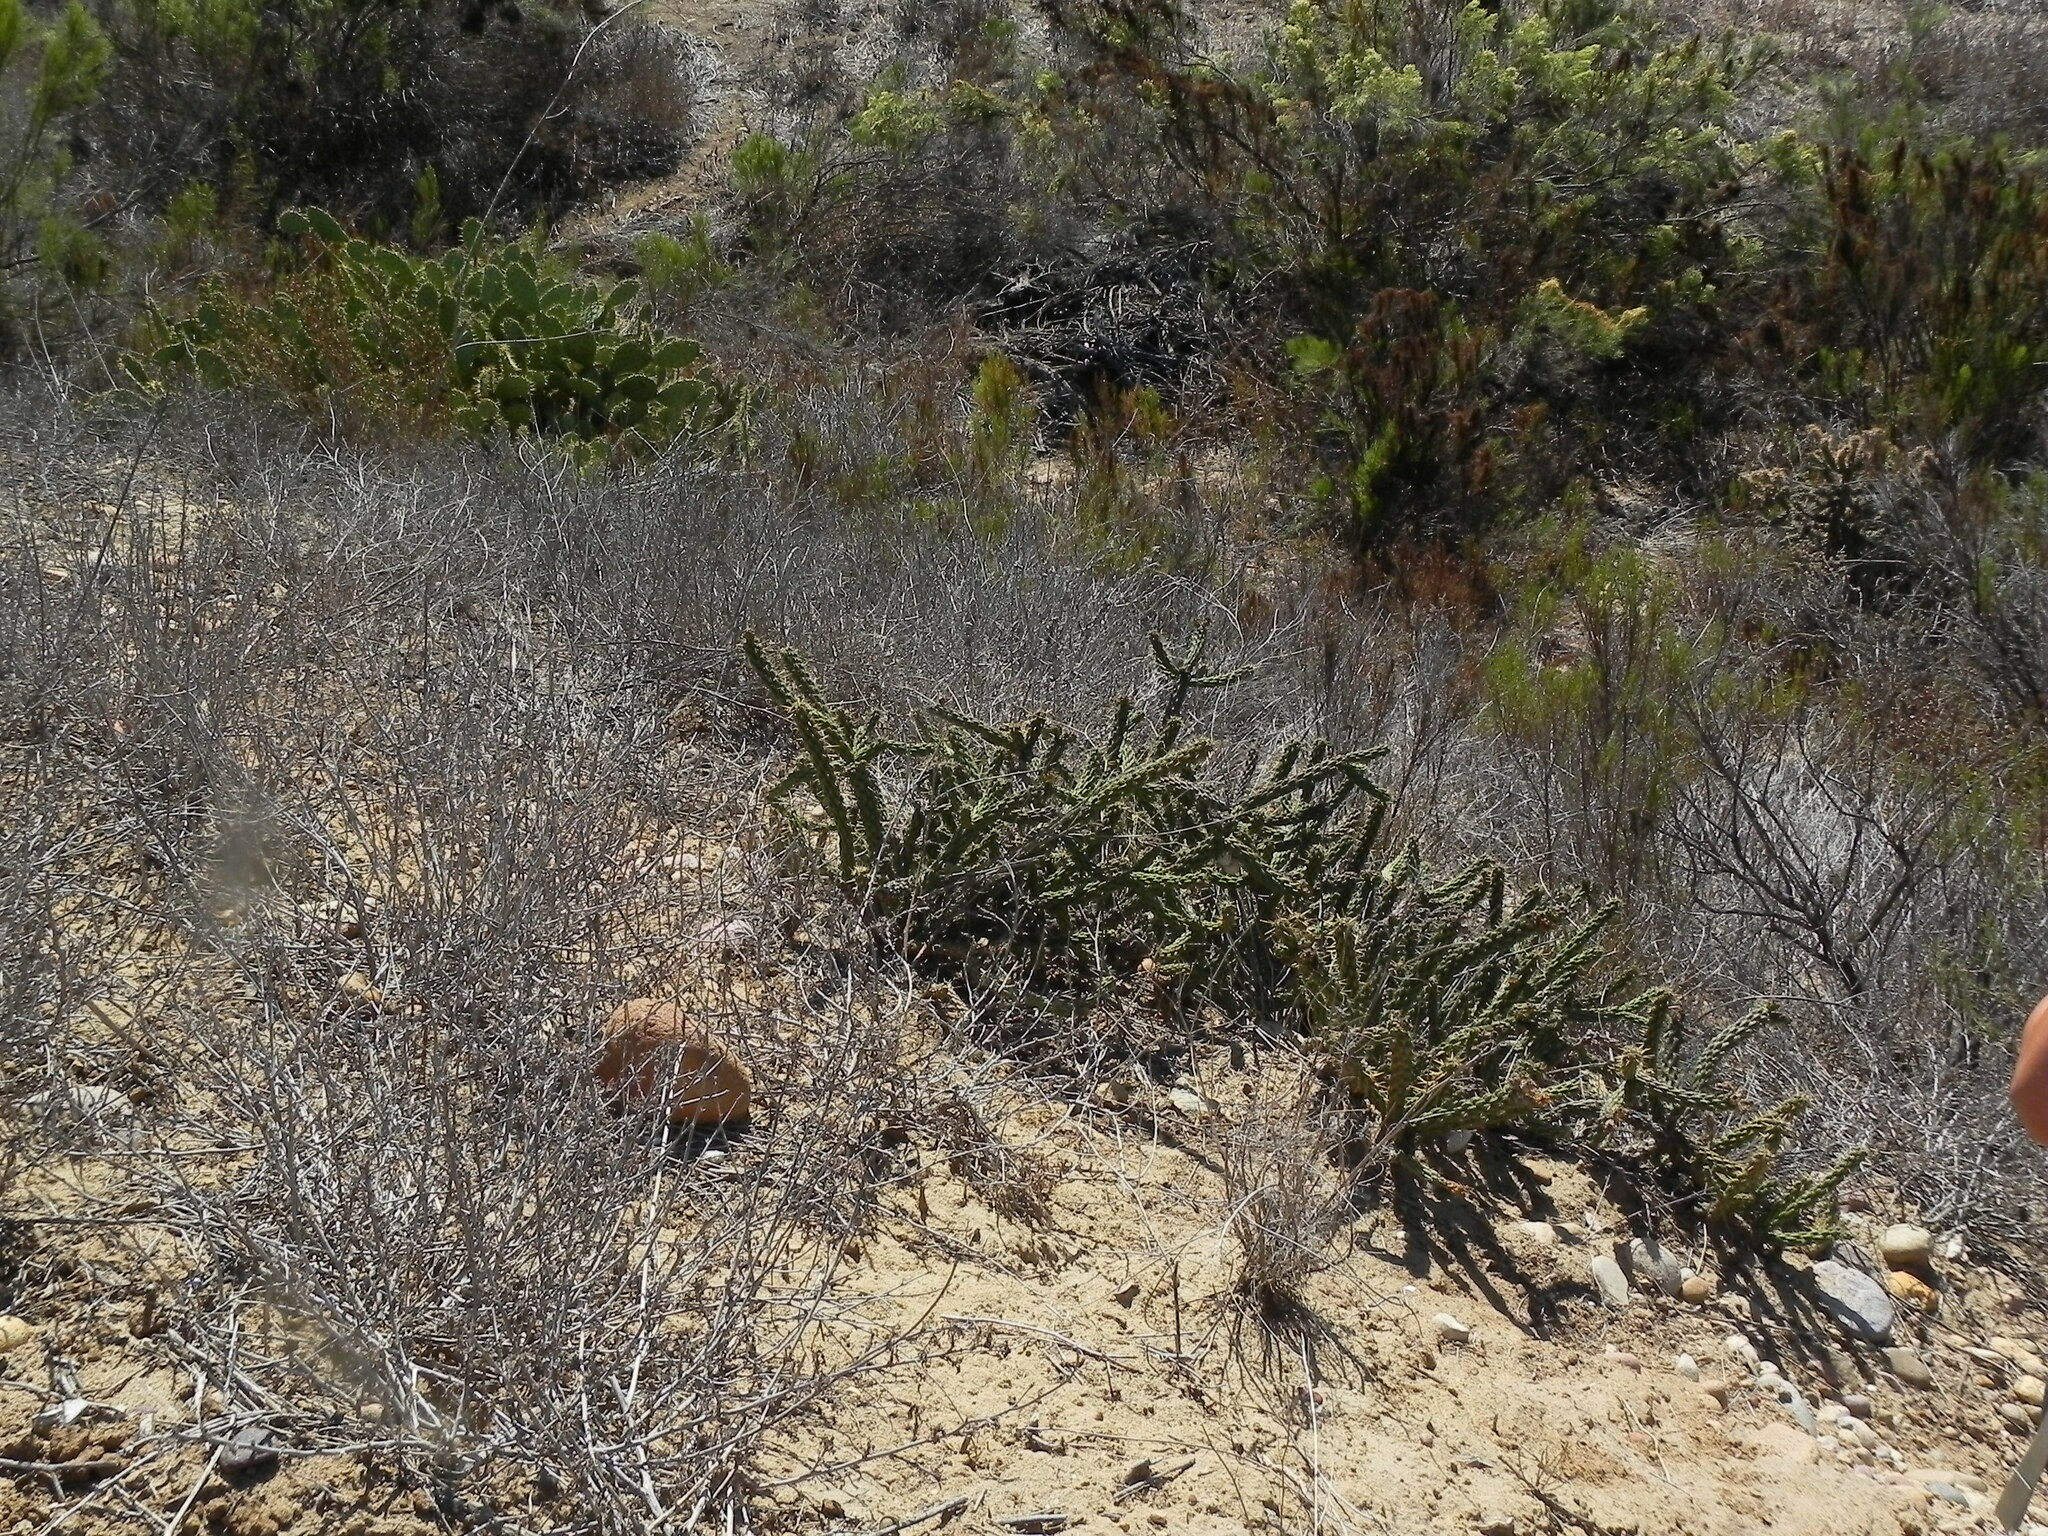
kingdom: Plantae
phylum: Tracheophyta
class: Magnoliopsida
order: Caryophyllales
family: Cactaceae
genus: Cylindropuntia
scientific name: Cylindropuntia californica
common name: Snake cholla
